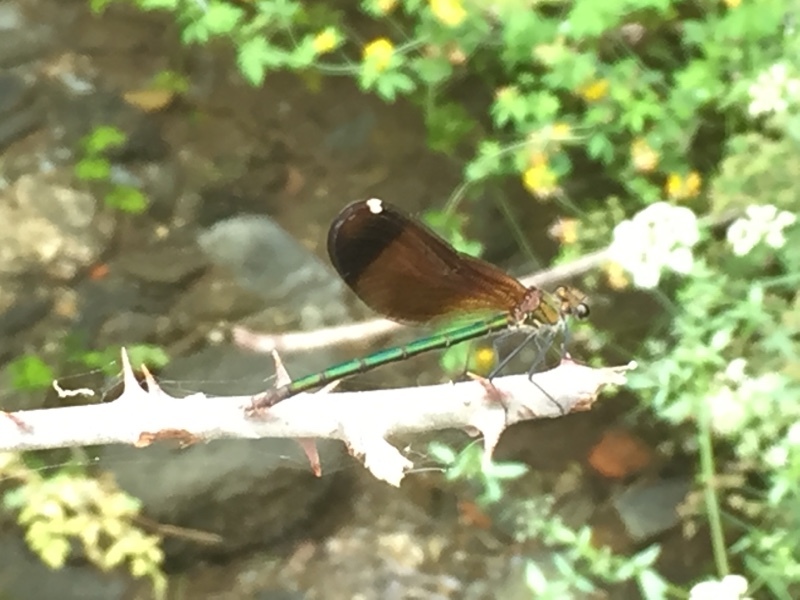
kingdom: Animalia
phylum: Arthropoda
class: Insecta
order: Odonata
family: Calopterygidae
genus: Calopteryx
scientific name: Calopteryx haemorrhoidalis
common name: Copper demoiselle
